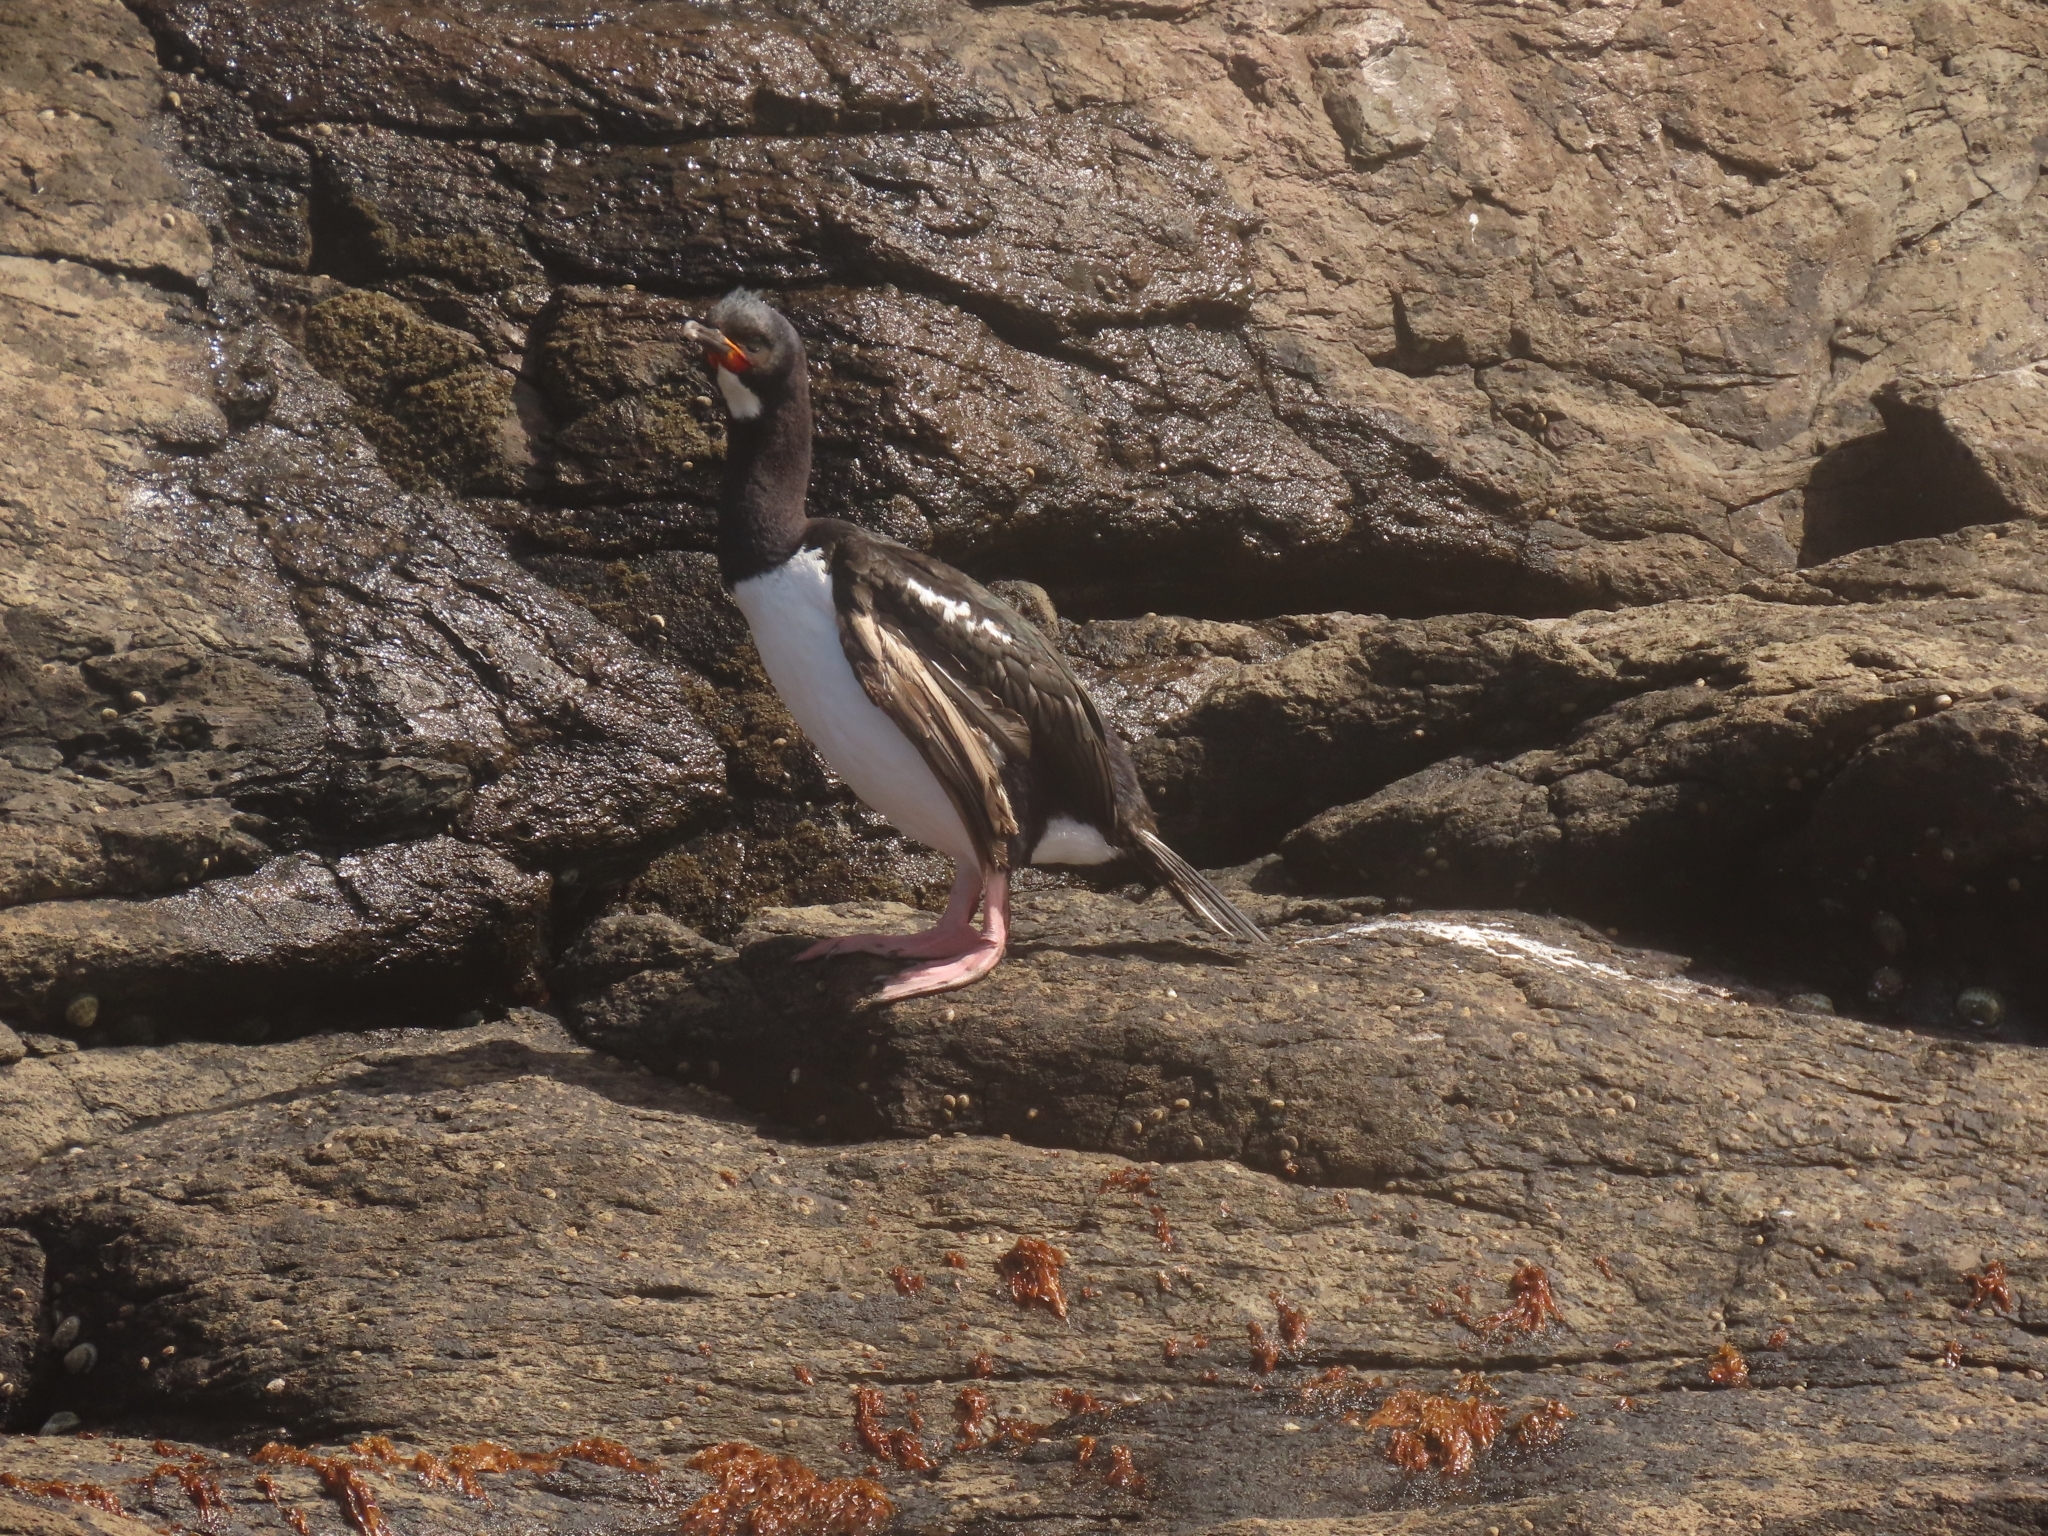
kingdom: Animalia
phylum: Chordata
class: Aves
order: Suliformes
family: Phalacrocoracidae
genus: Leucocarbo
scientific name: Leucocarbo campbelli
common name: Campbell shag
